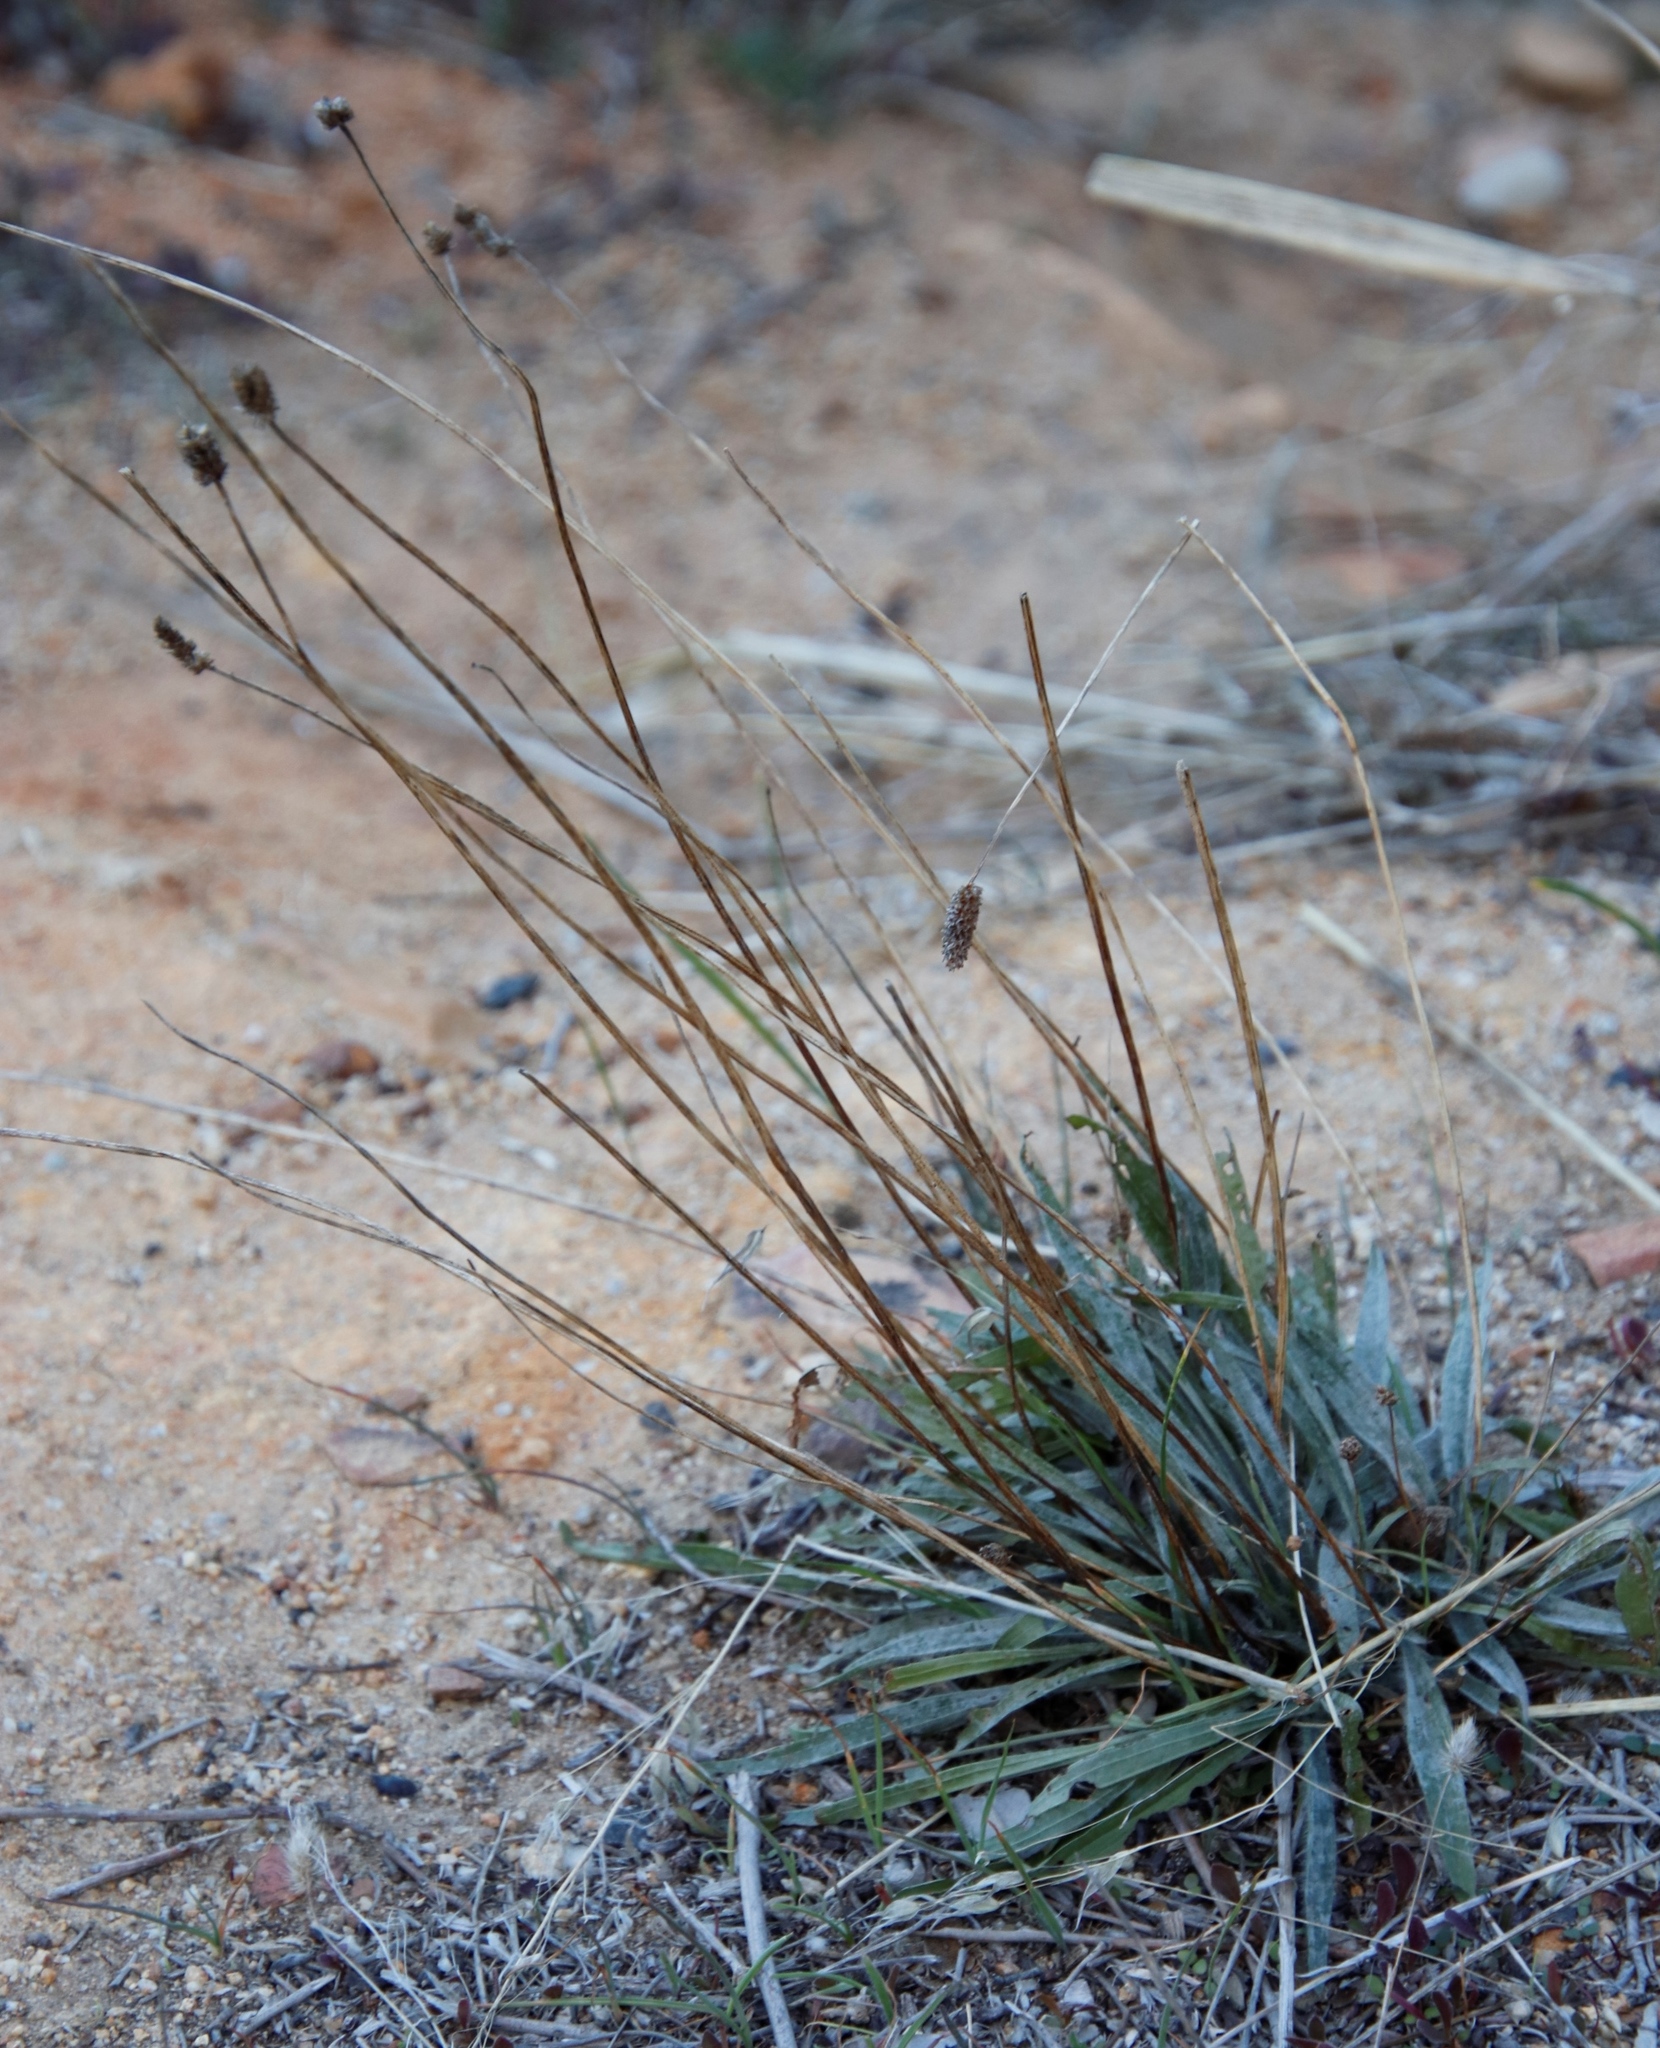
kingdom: Plantae
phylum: Tracheophyta
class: Magnoliopsida
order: Lamiales
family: Plantaginaceae
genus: Plantago
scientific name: Plantago lanceolata
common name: Ribwort plantain
